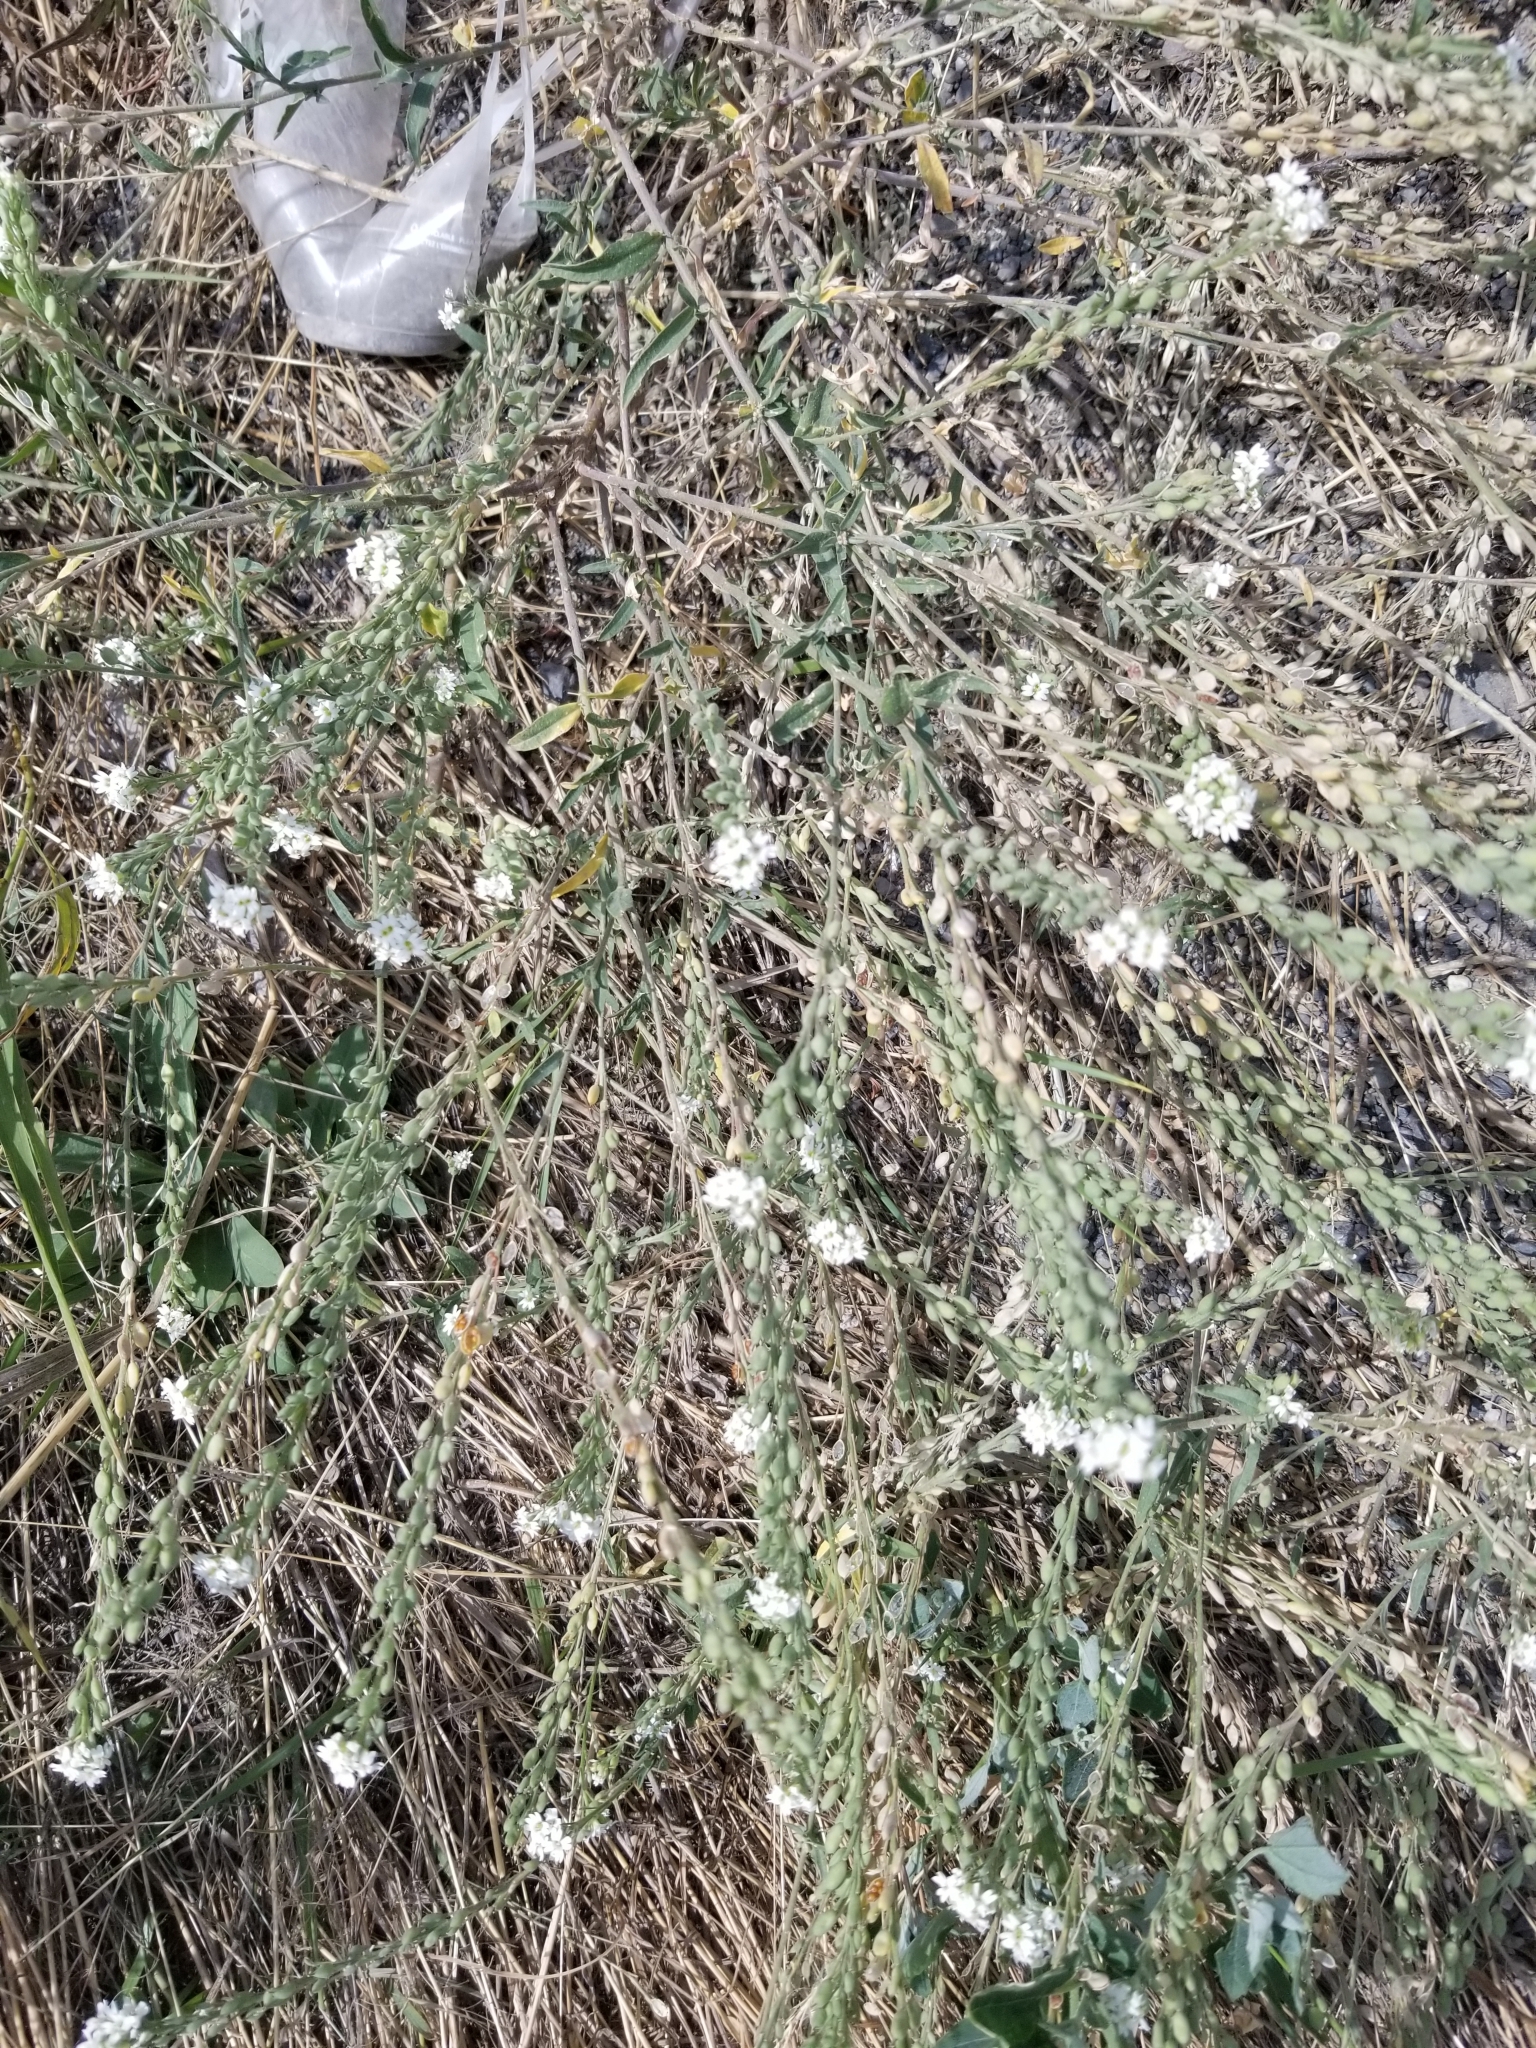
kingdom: Plantae
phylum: Tracheophyta
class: Magnoliopsida
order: Brassicales
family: Brassicaceae
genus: Berteroa
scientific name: Berteroa incana
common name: Hoary alison
